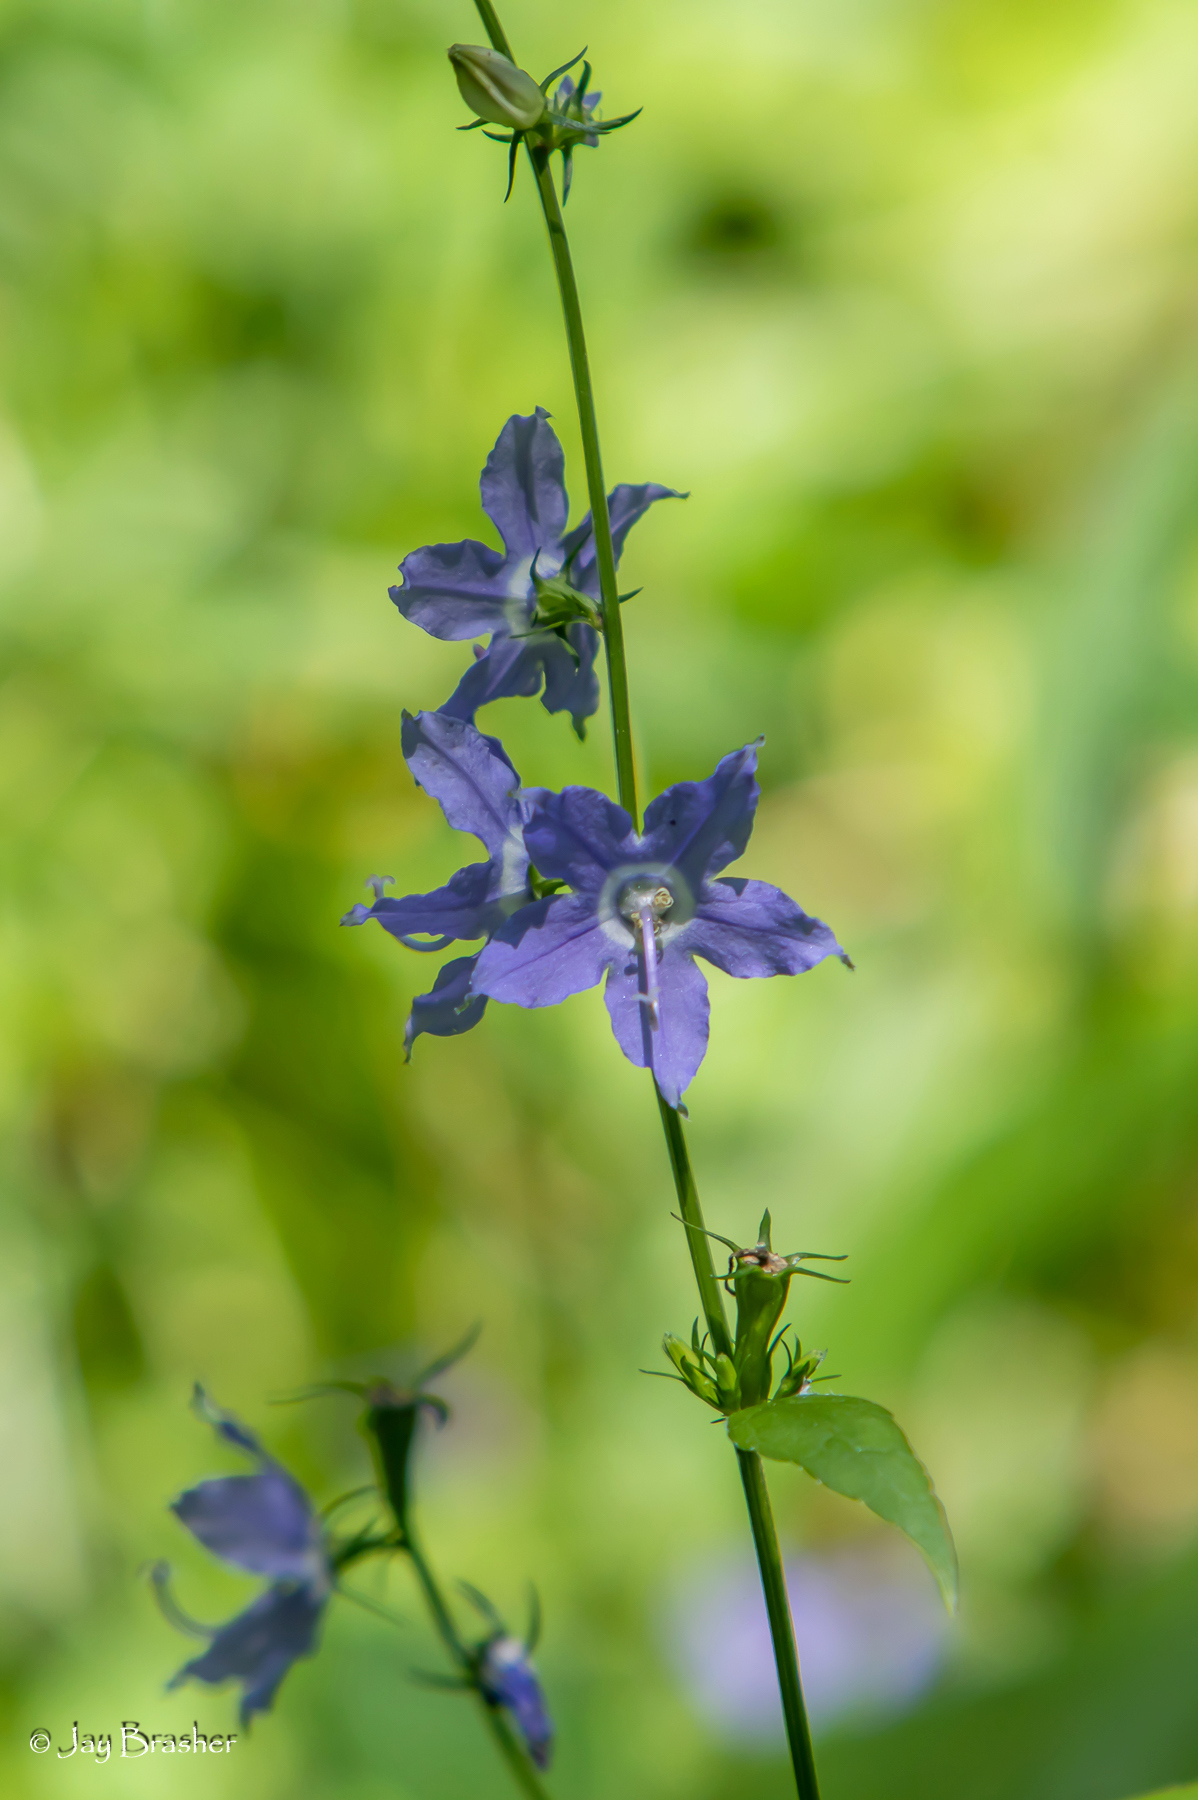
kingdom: Plantae
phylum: Tracheophyta
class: Magnoliopsida
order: Asterales
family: Campanulaceae
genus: Campanulastrum
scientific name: Campanulastrum americanum
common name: American bellflower
